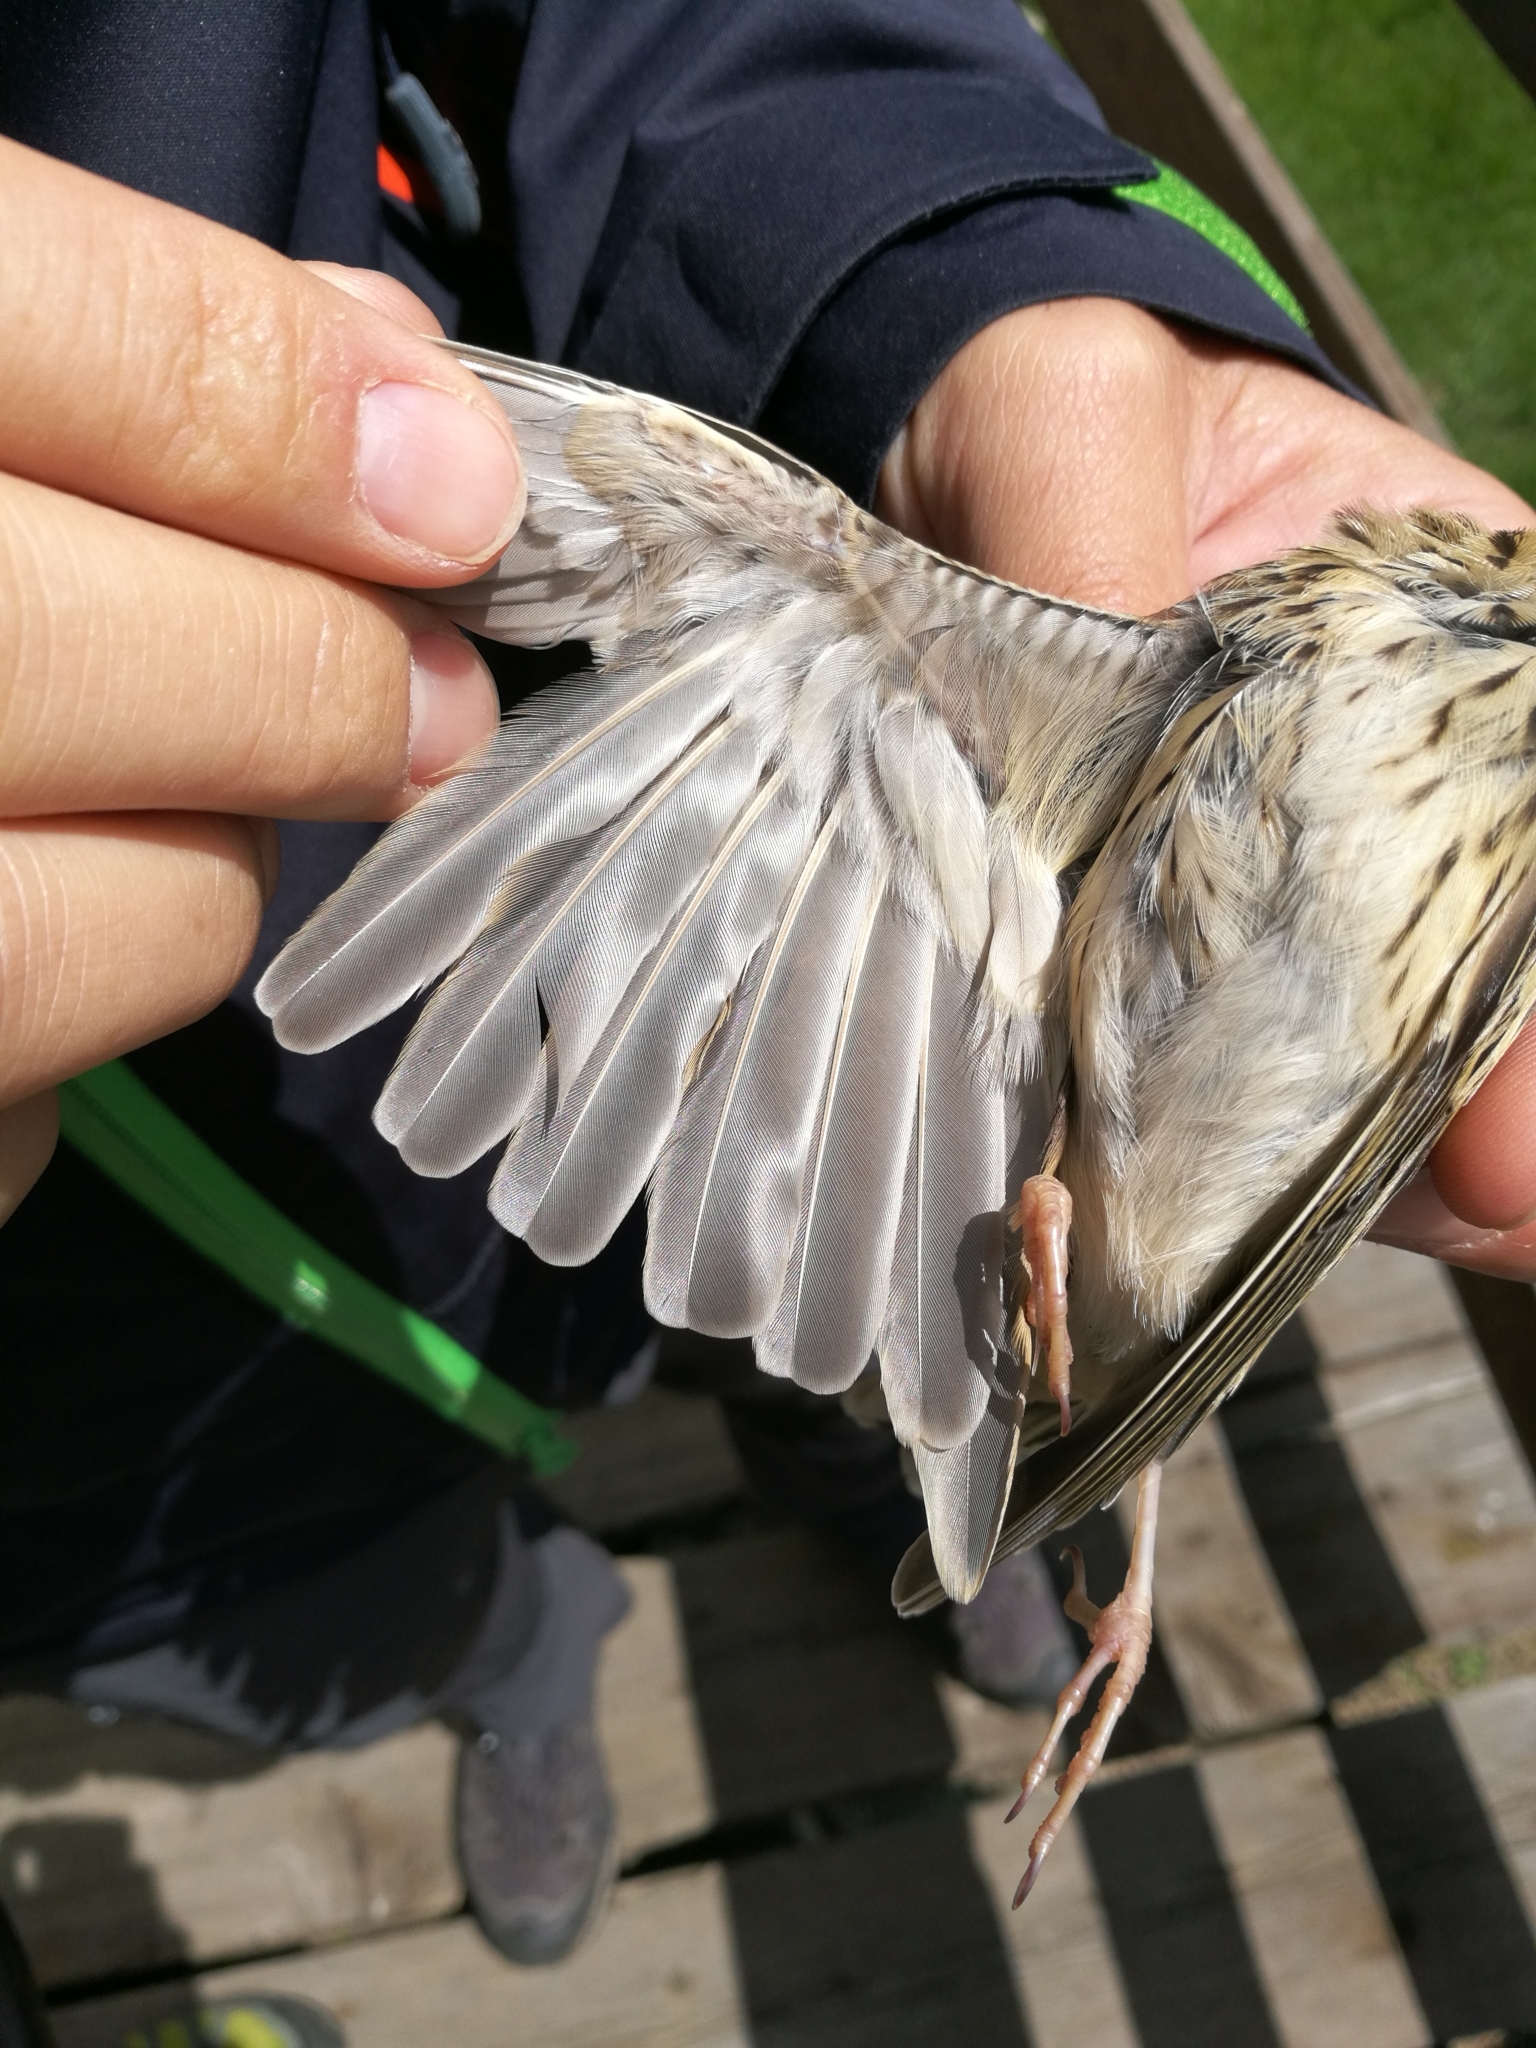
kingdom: Animalia
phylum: Chordata
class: Aves
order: Passeriformes
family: Motacillidae
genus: Anthus
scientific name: Anthus trivialis
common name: Tree pipit
